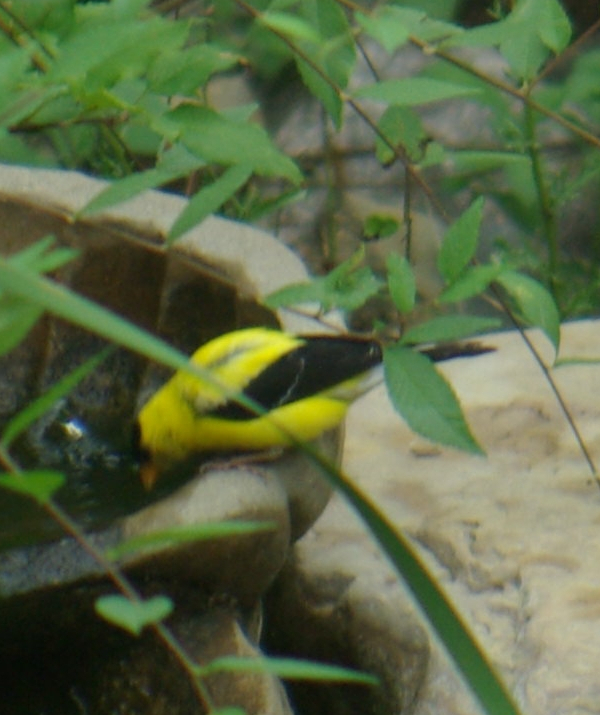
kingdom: Animalia
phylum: Chordata
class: Aves
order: Passeriformes
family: Fringillidae
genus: Spinus
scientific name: Spinus tristis
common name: American goldfinch
